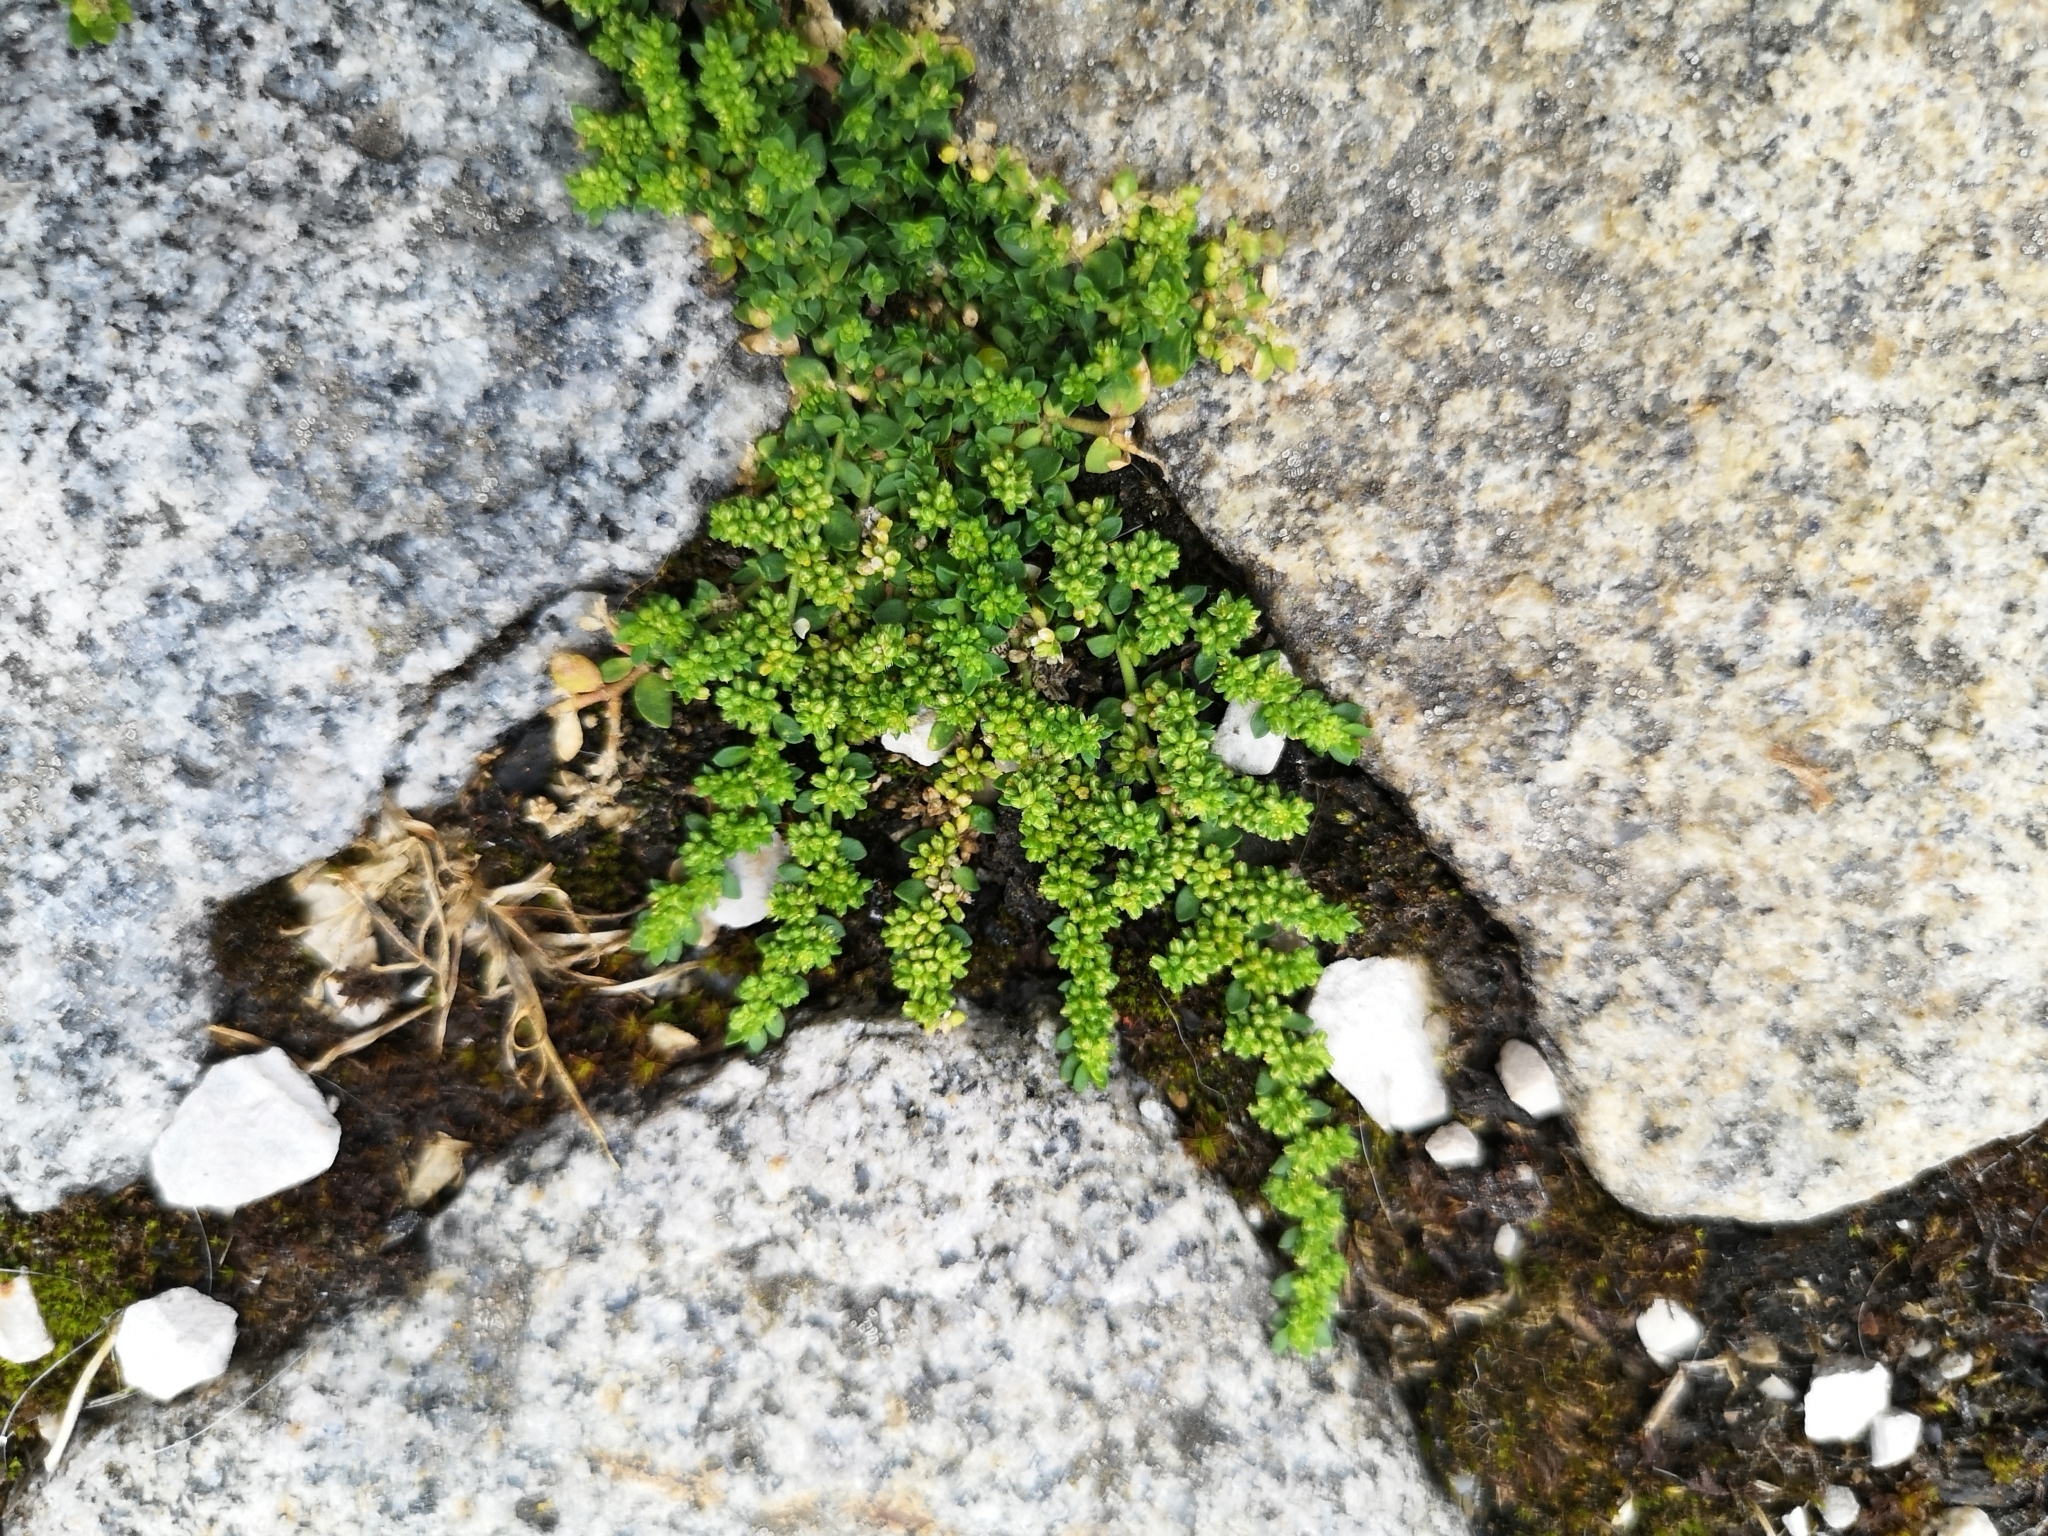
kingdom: Plantae
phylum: Tracheophyta
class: Magnoliopsida
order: Caryophyllales
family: Caryophyllaceae
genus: Herniaria
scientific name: Herniaria glabra
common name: Smooth rupturewort
